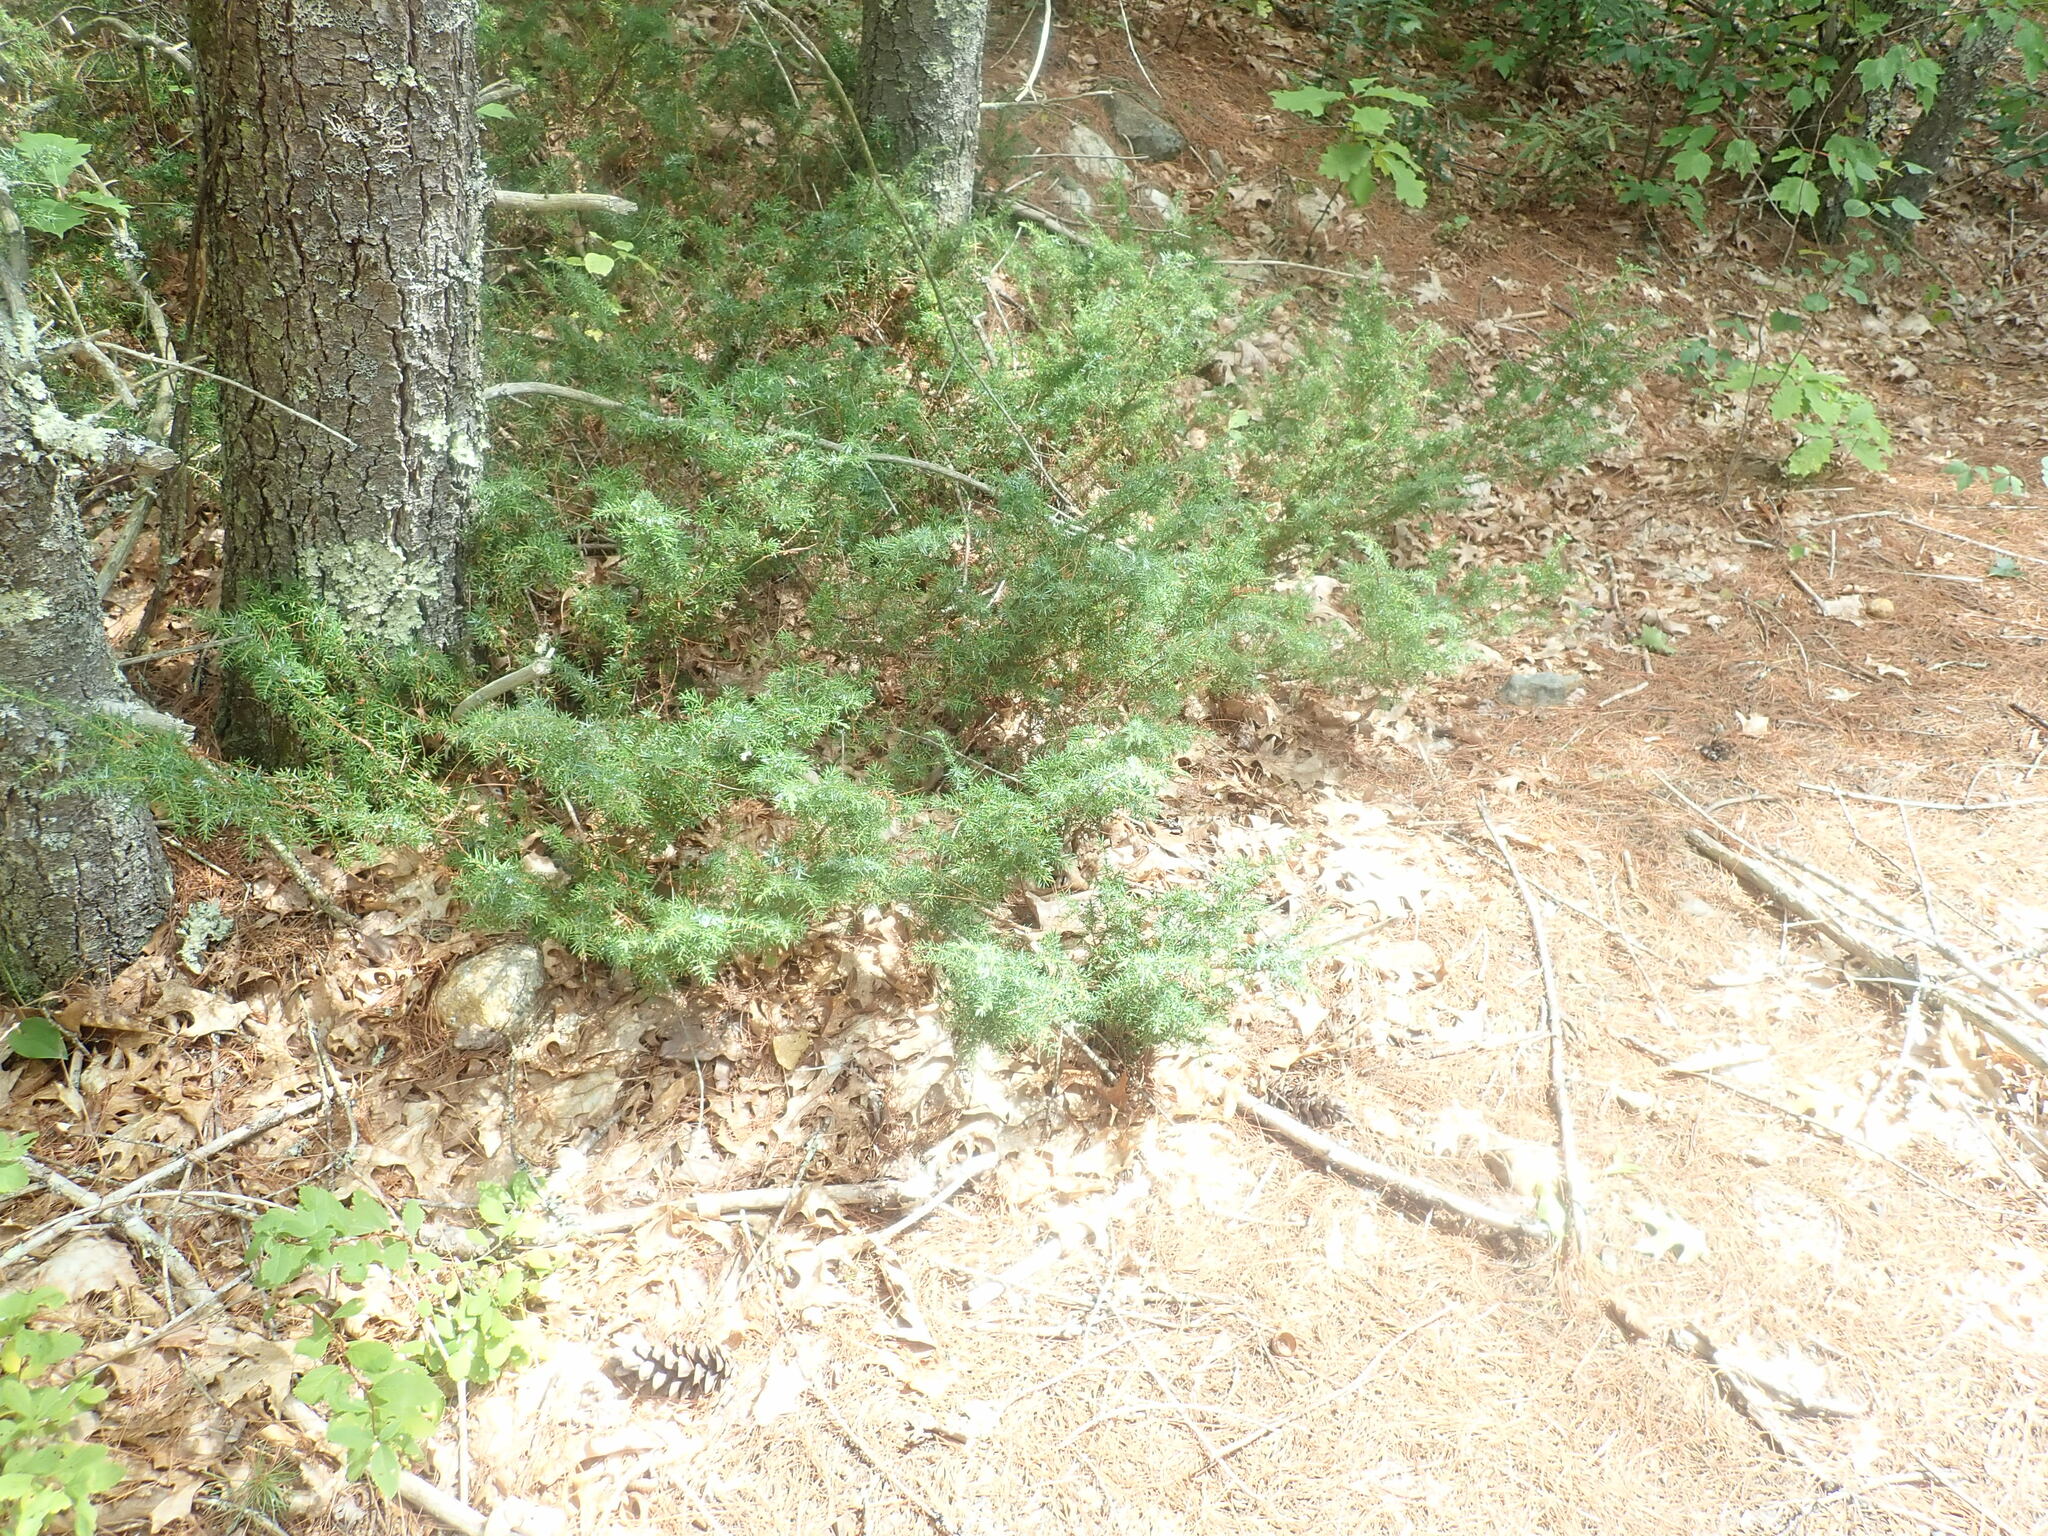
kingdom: Plantae
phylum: Tracheophyta
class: Pinopsida
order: Pinales
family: Cupressaceae
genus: Juniperus
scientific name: Juniperus communis
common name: Common juniper
